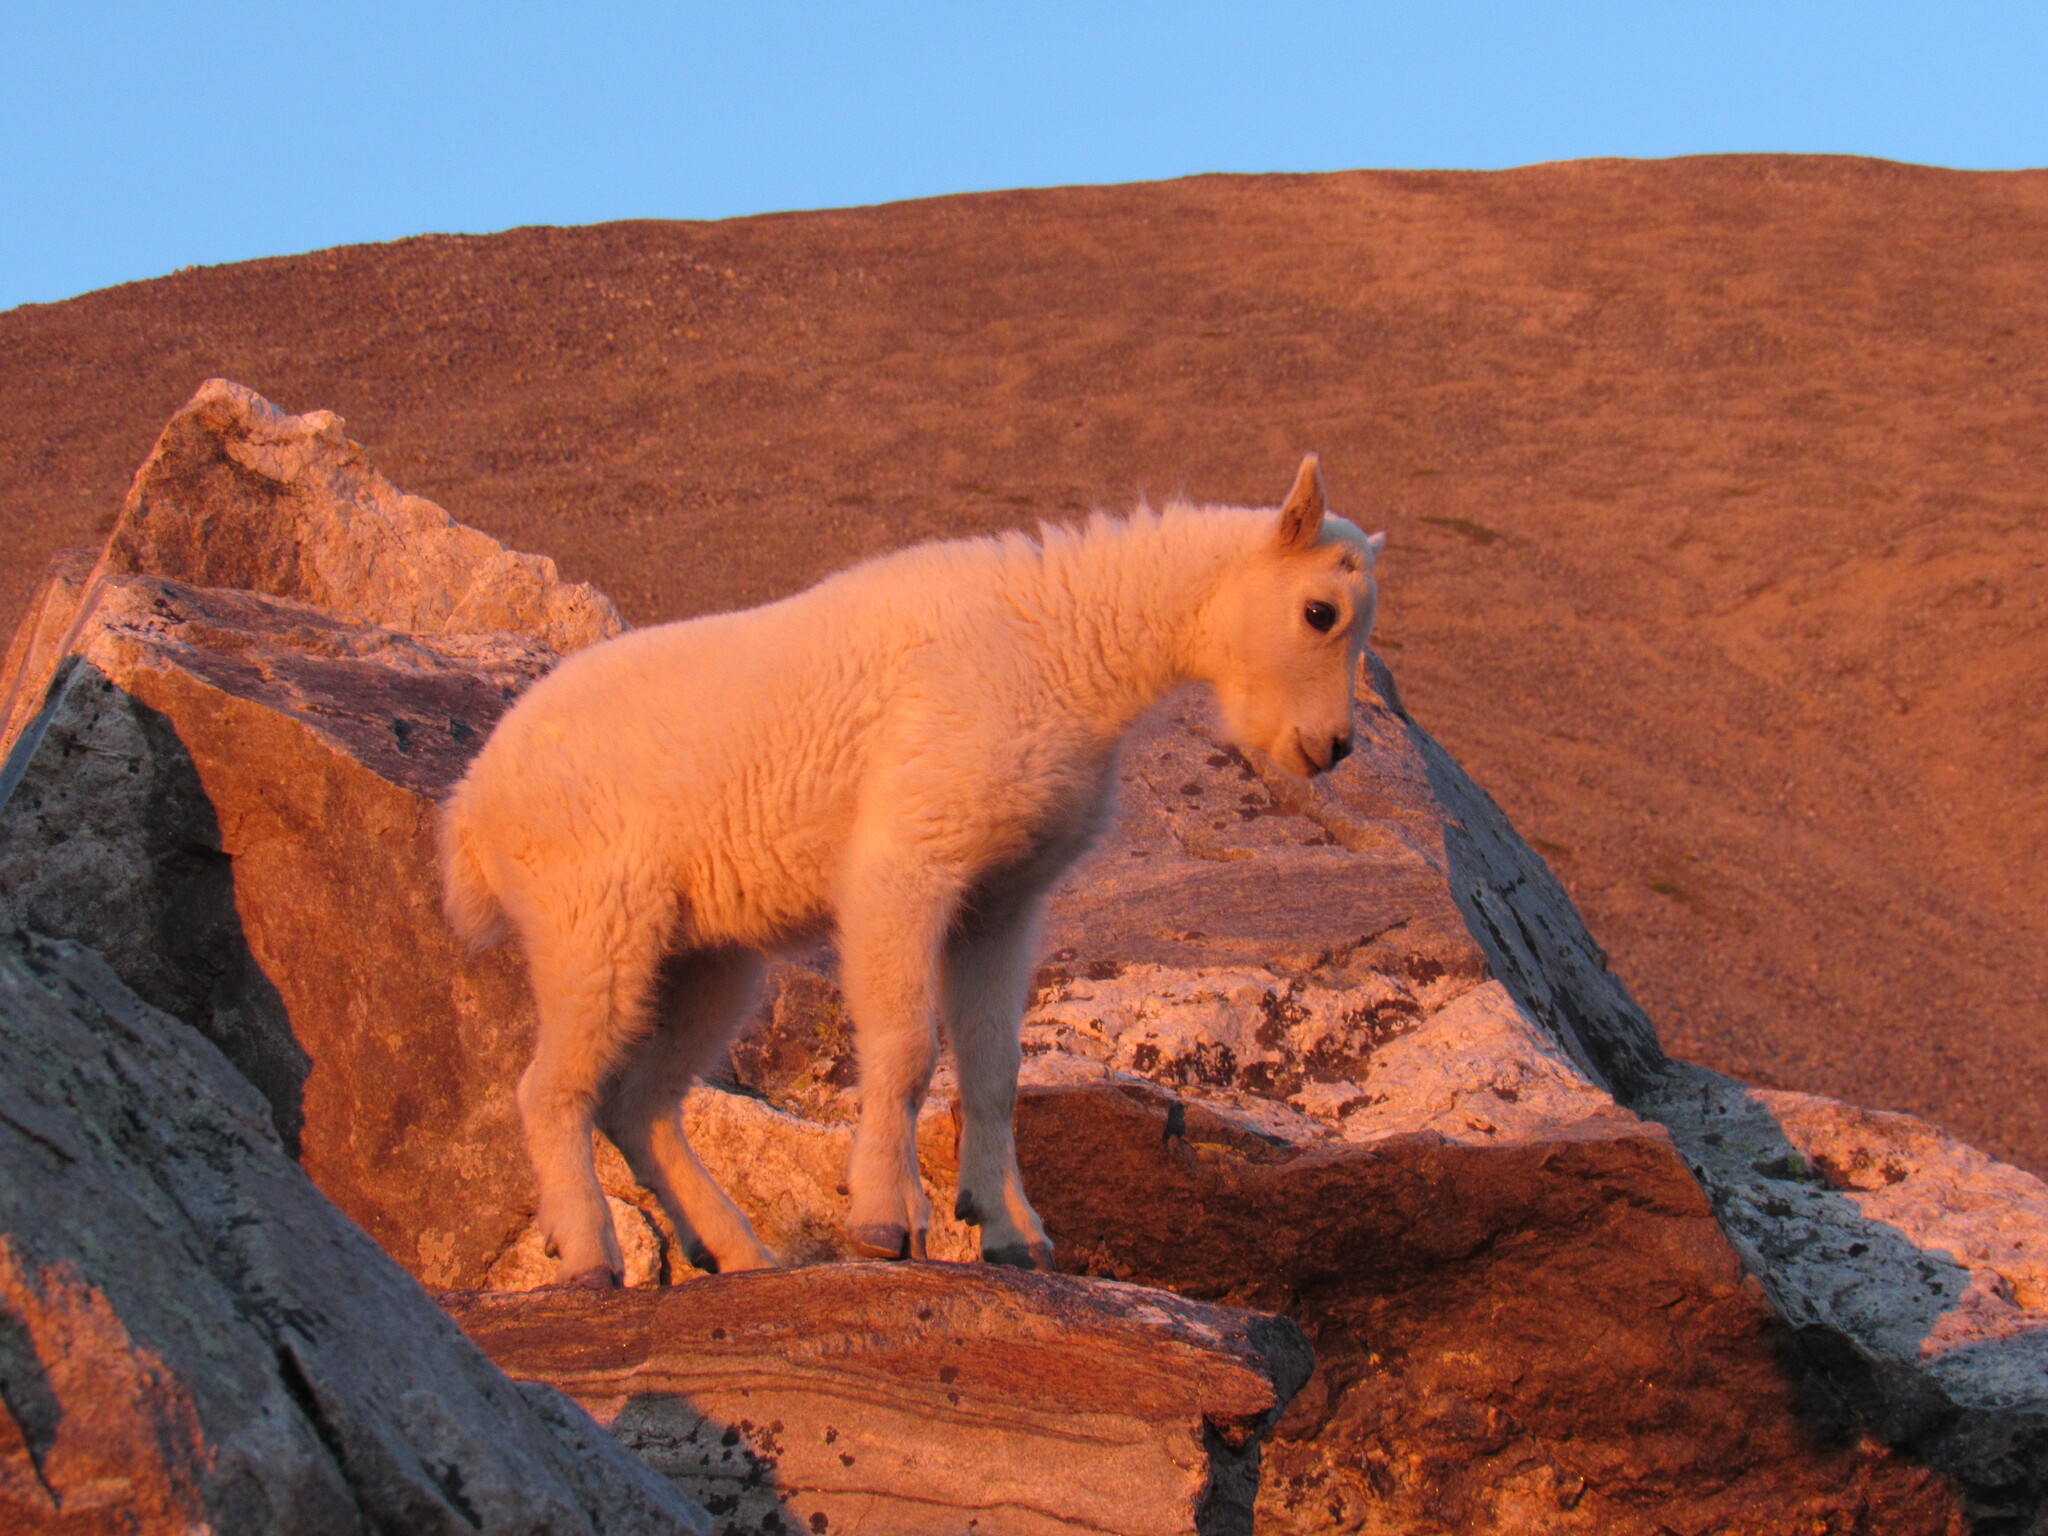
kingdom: Animalia
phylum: Chordata
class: Mammalia
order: Artiodactyla
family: Bovidae
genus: Oreamnos
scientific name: Oreamnos americanus
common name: Mountain goat
